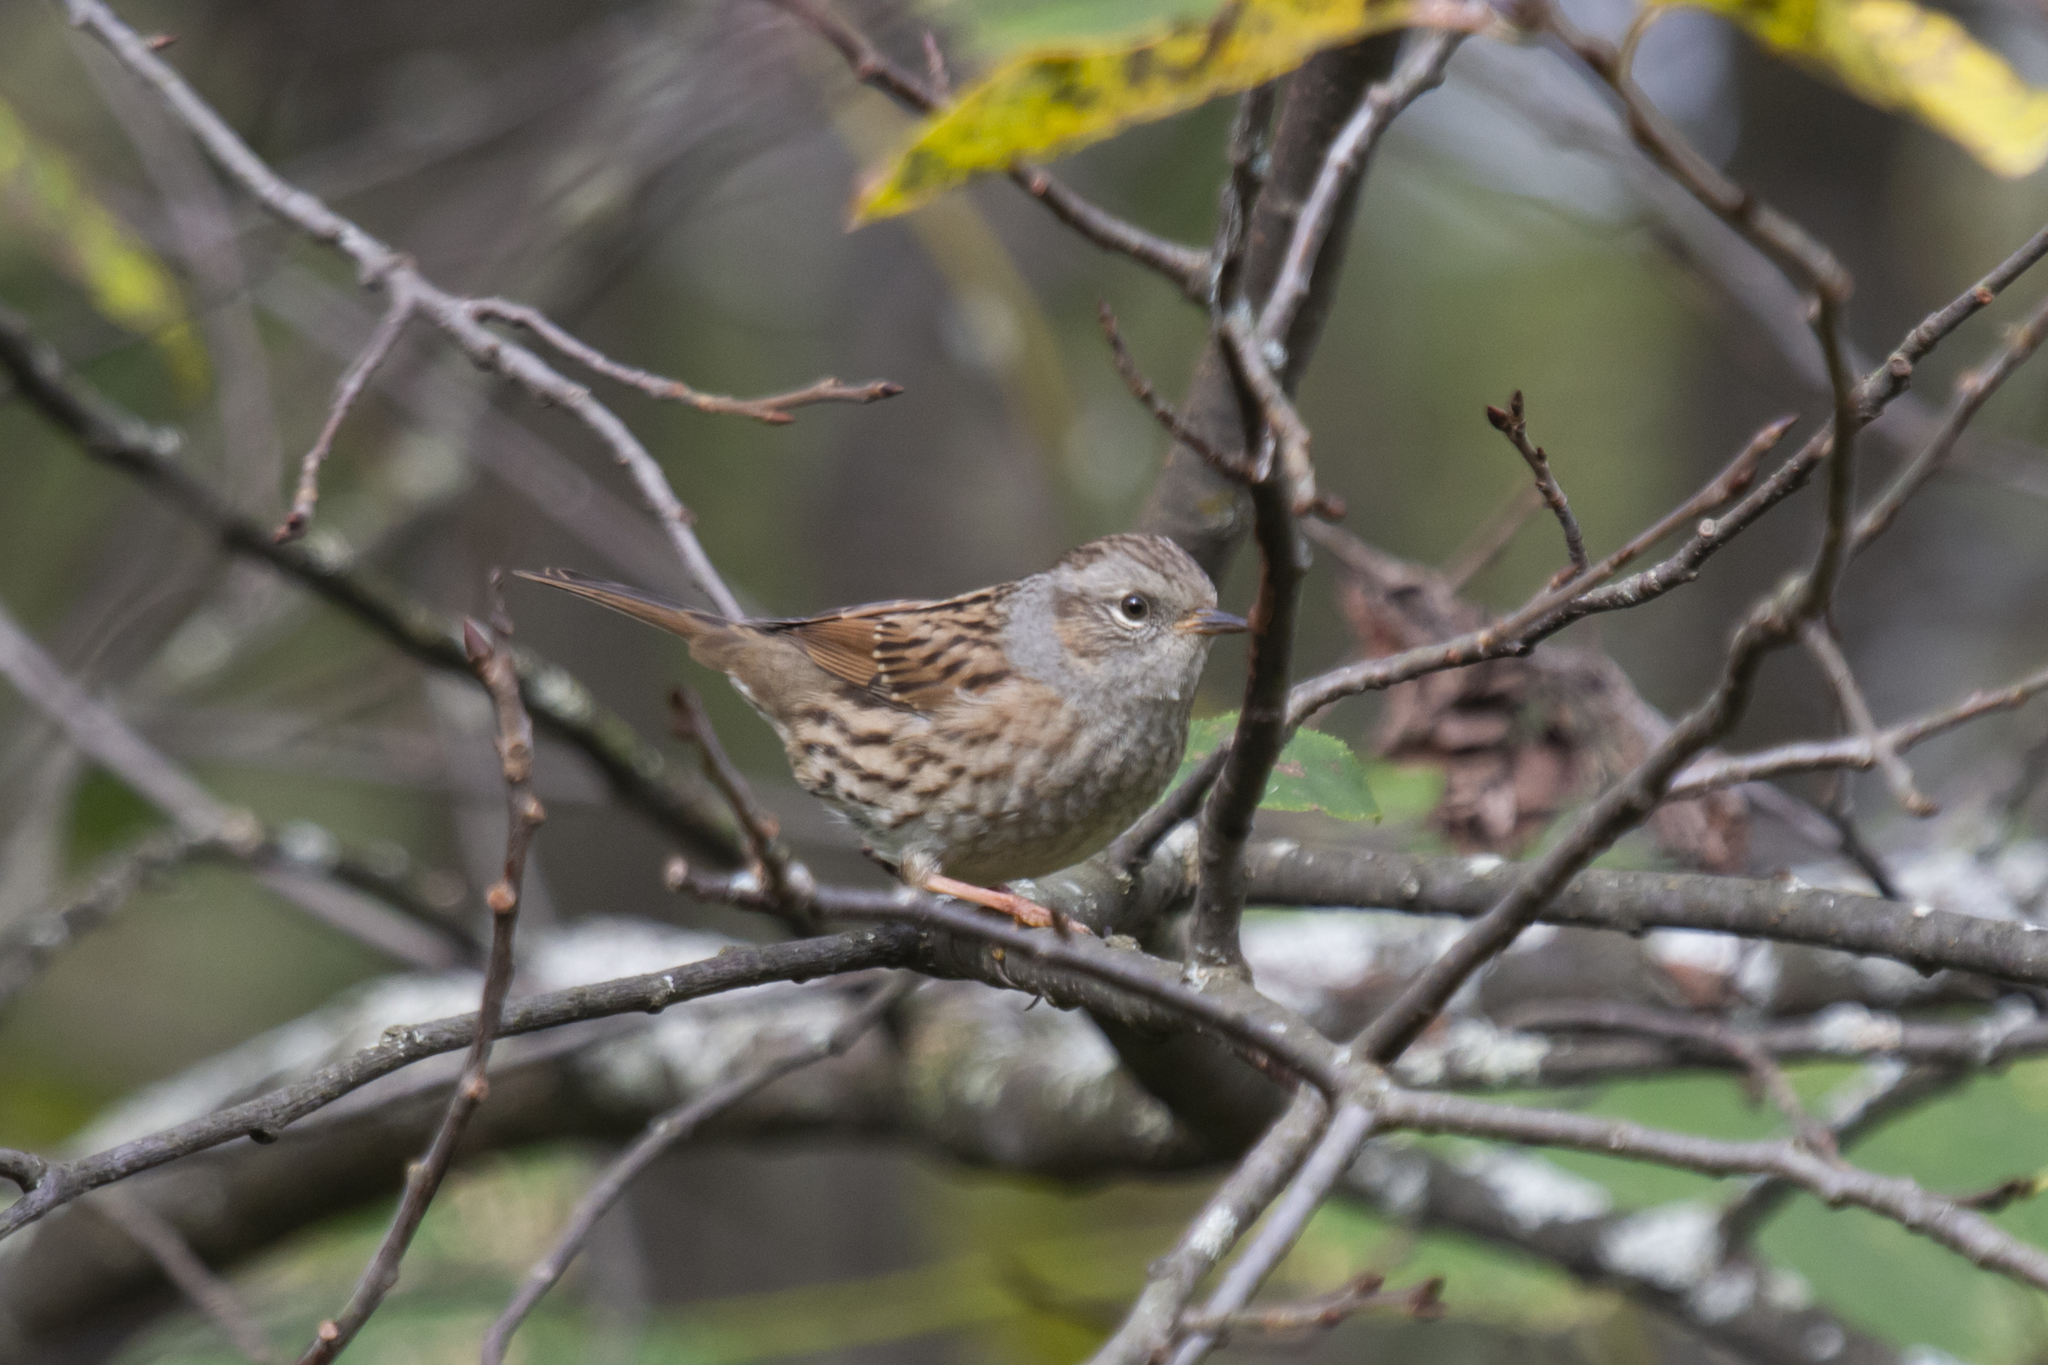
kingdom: Animalia
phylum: Chordata
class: Aves
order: Passeriformes
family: Prunellidae
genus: Prunella
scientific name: Prunella modularis
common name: Dunnock
